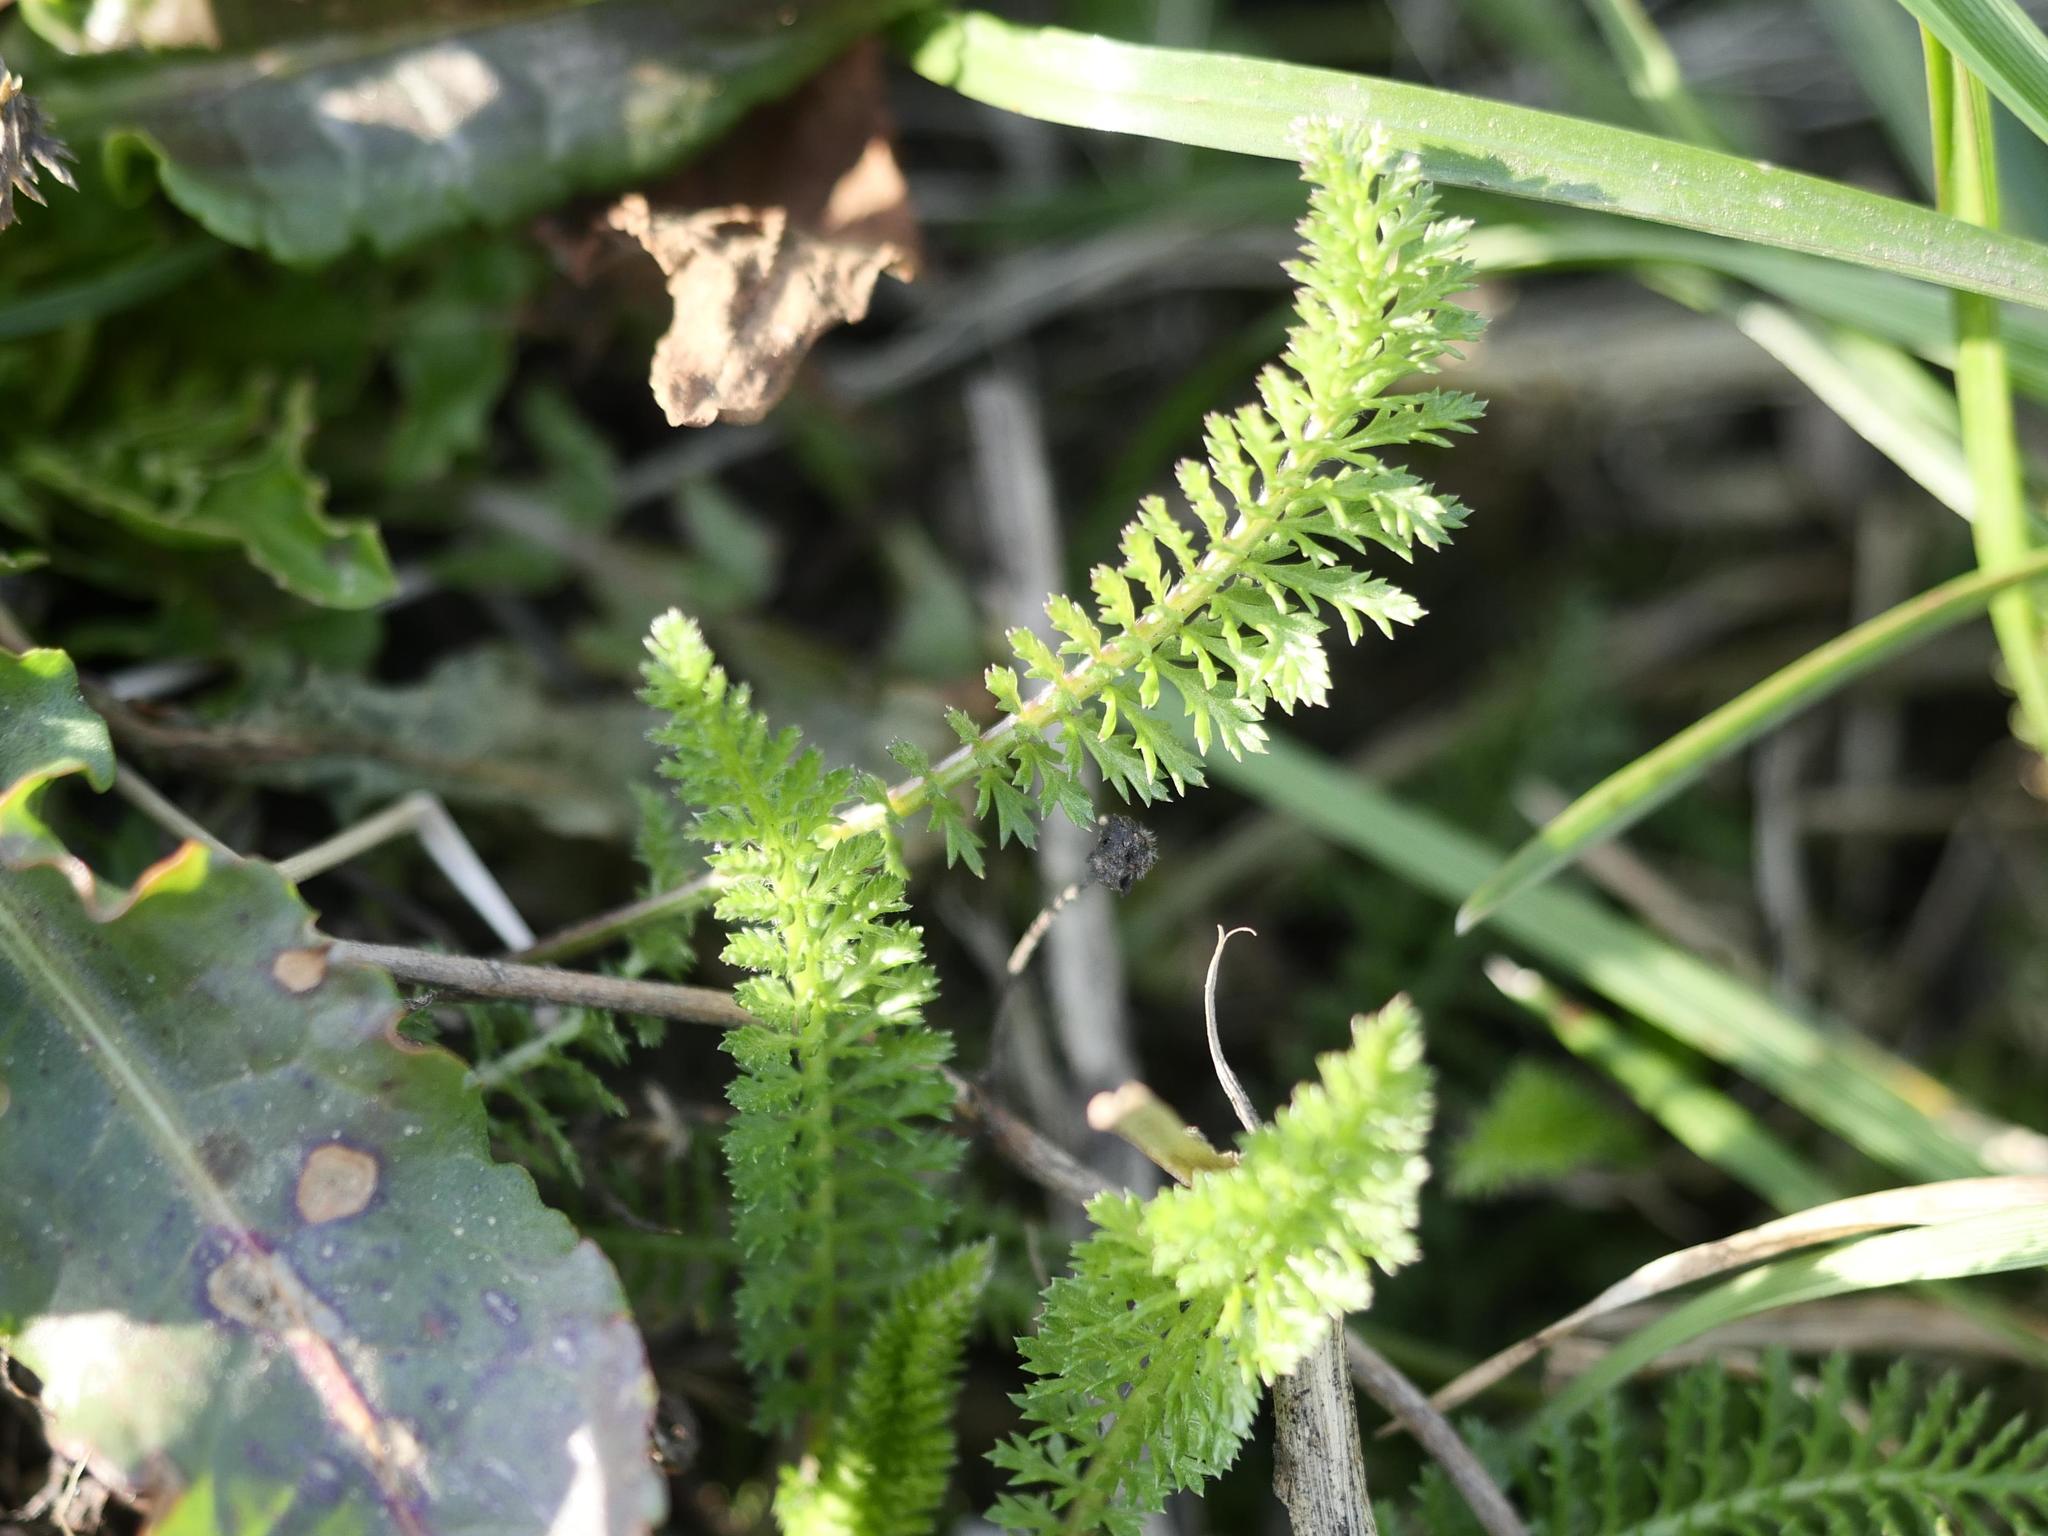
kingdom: Plantae
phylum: Tracheophyta
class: Magnoliopsida
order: Asterales
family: Asteraceae
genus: Achillea
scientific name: Achillea millefolium
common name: Yarrow
